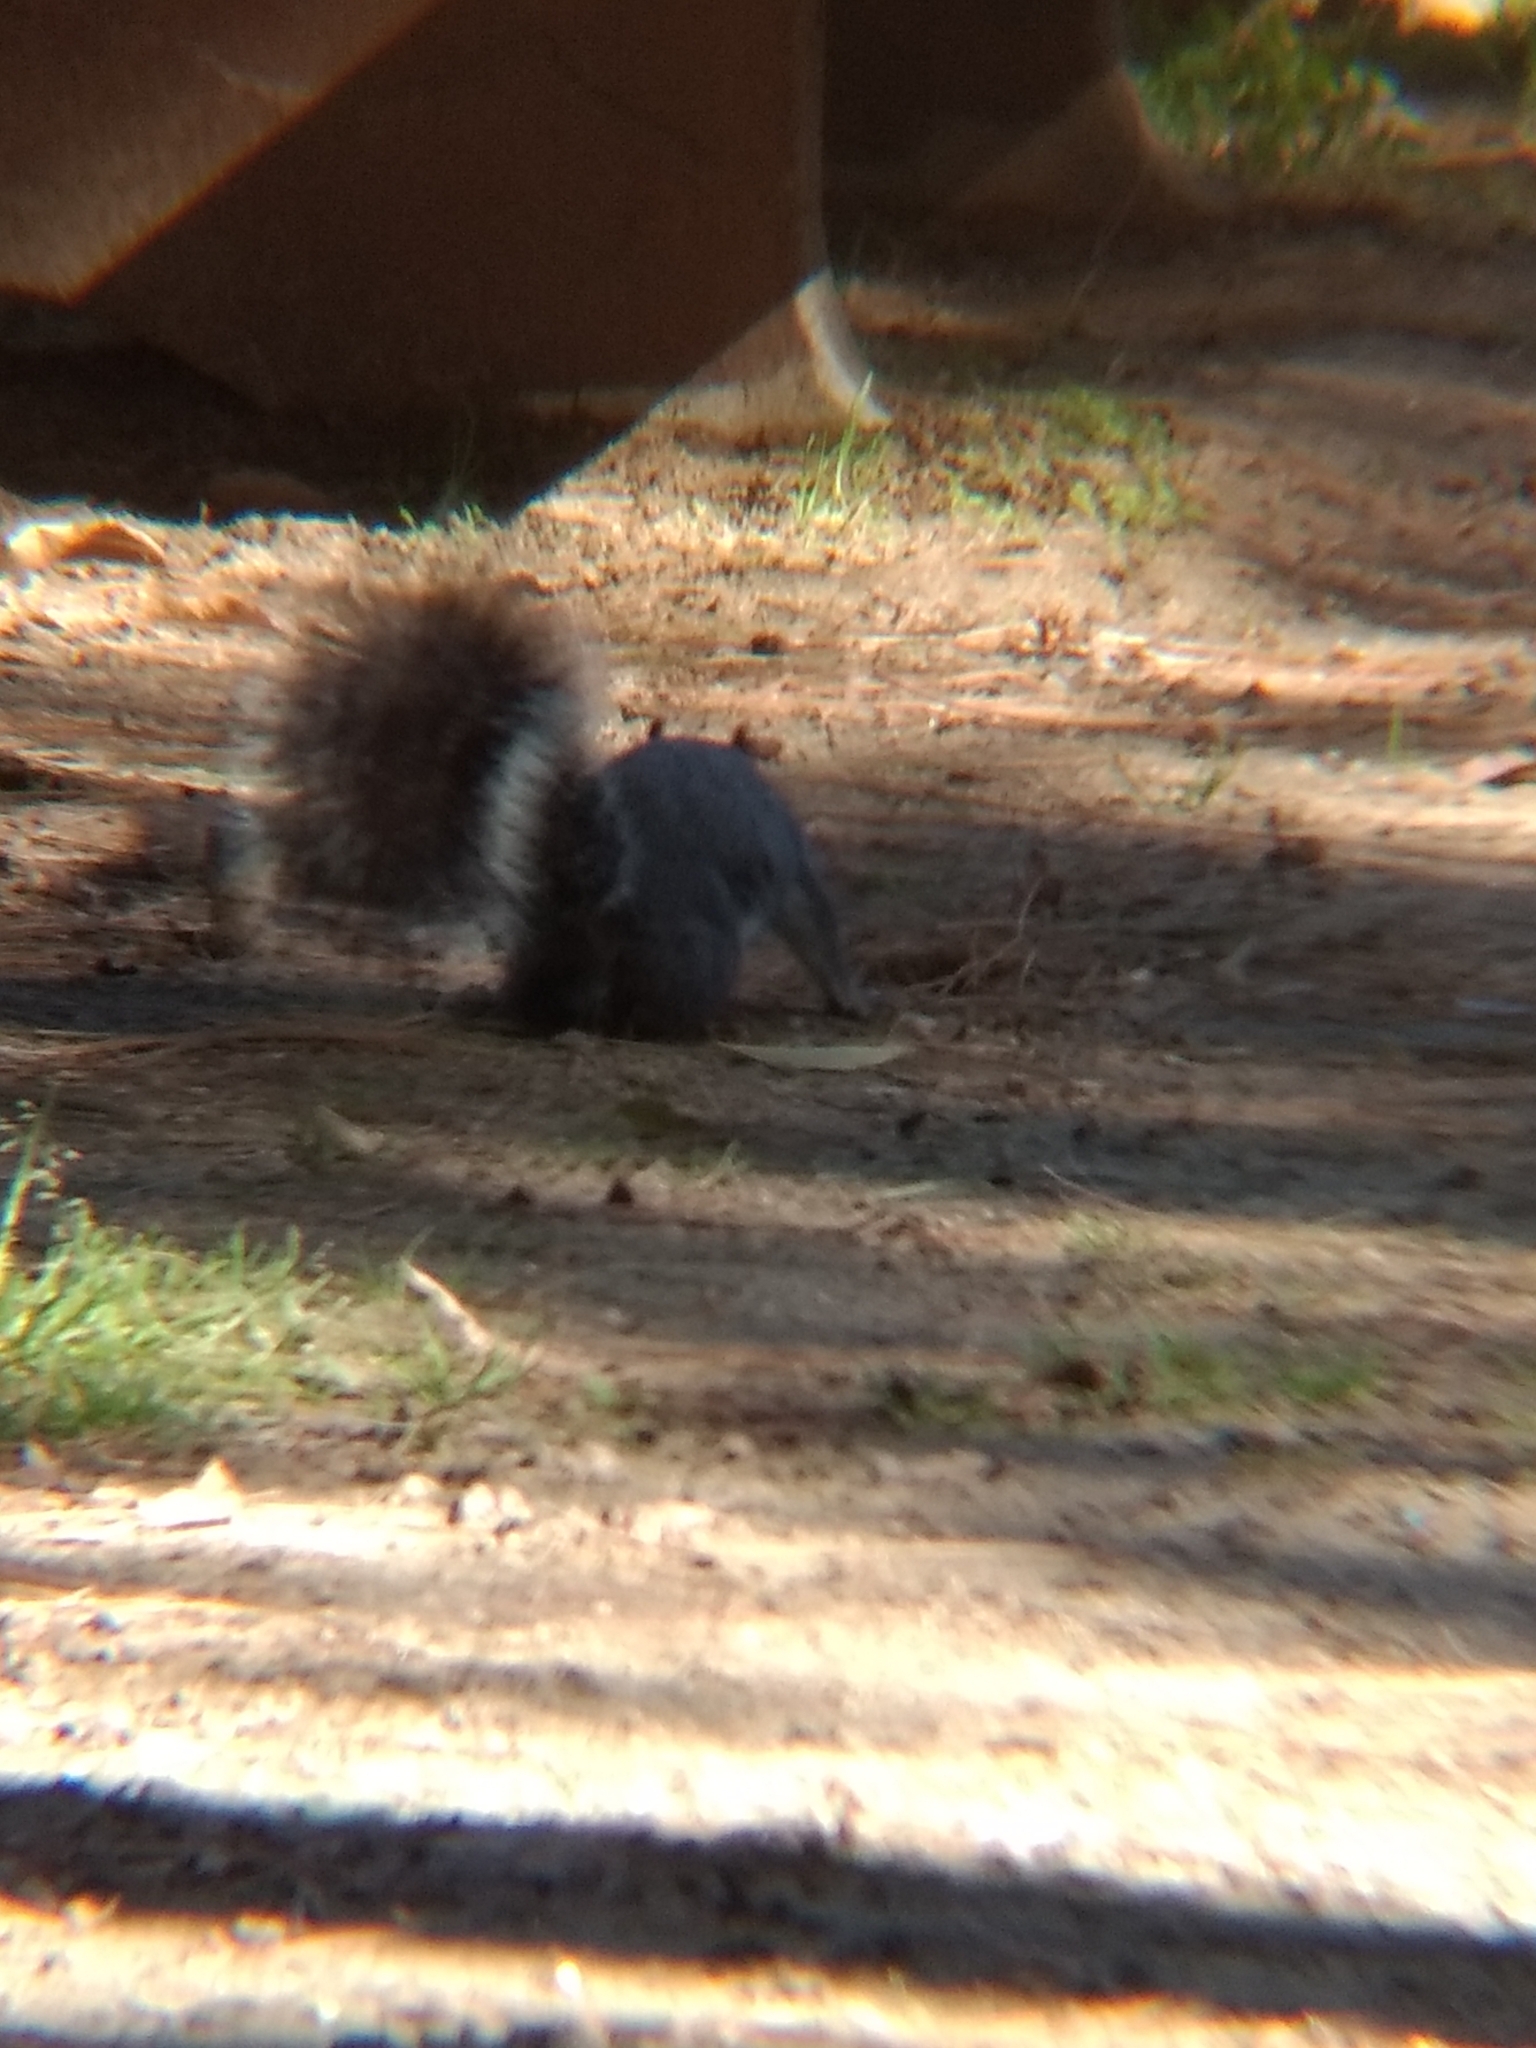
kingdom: Animalia
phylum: Chordata
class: Mammalia
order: Rodentia
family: Sciuridae
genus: Sciurus
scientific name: Sciurus griseus
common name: Western gray squirrel
